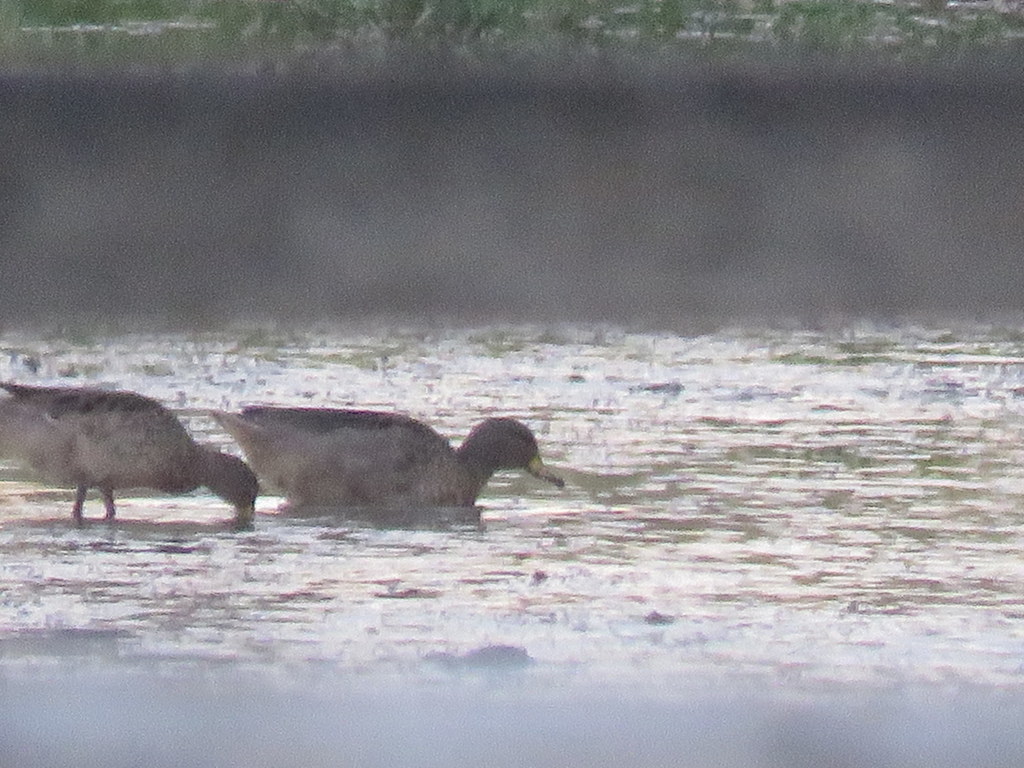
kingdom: Animalia
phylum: Chordata
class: Aves
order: Anseriformes
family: Anatidae
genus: Anas
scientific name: Anas flavirostris
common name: Yellow-billed teal
